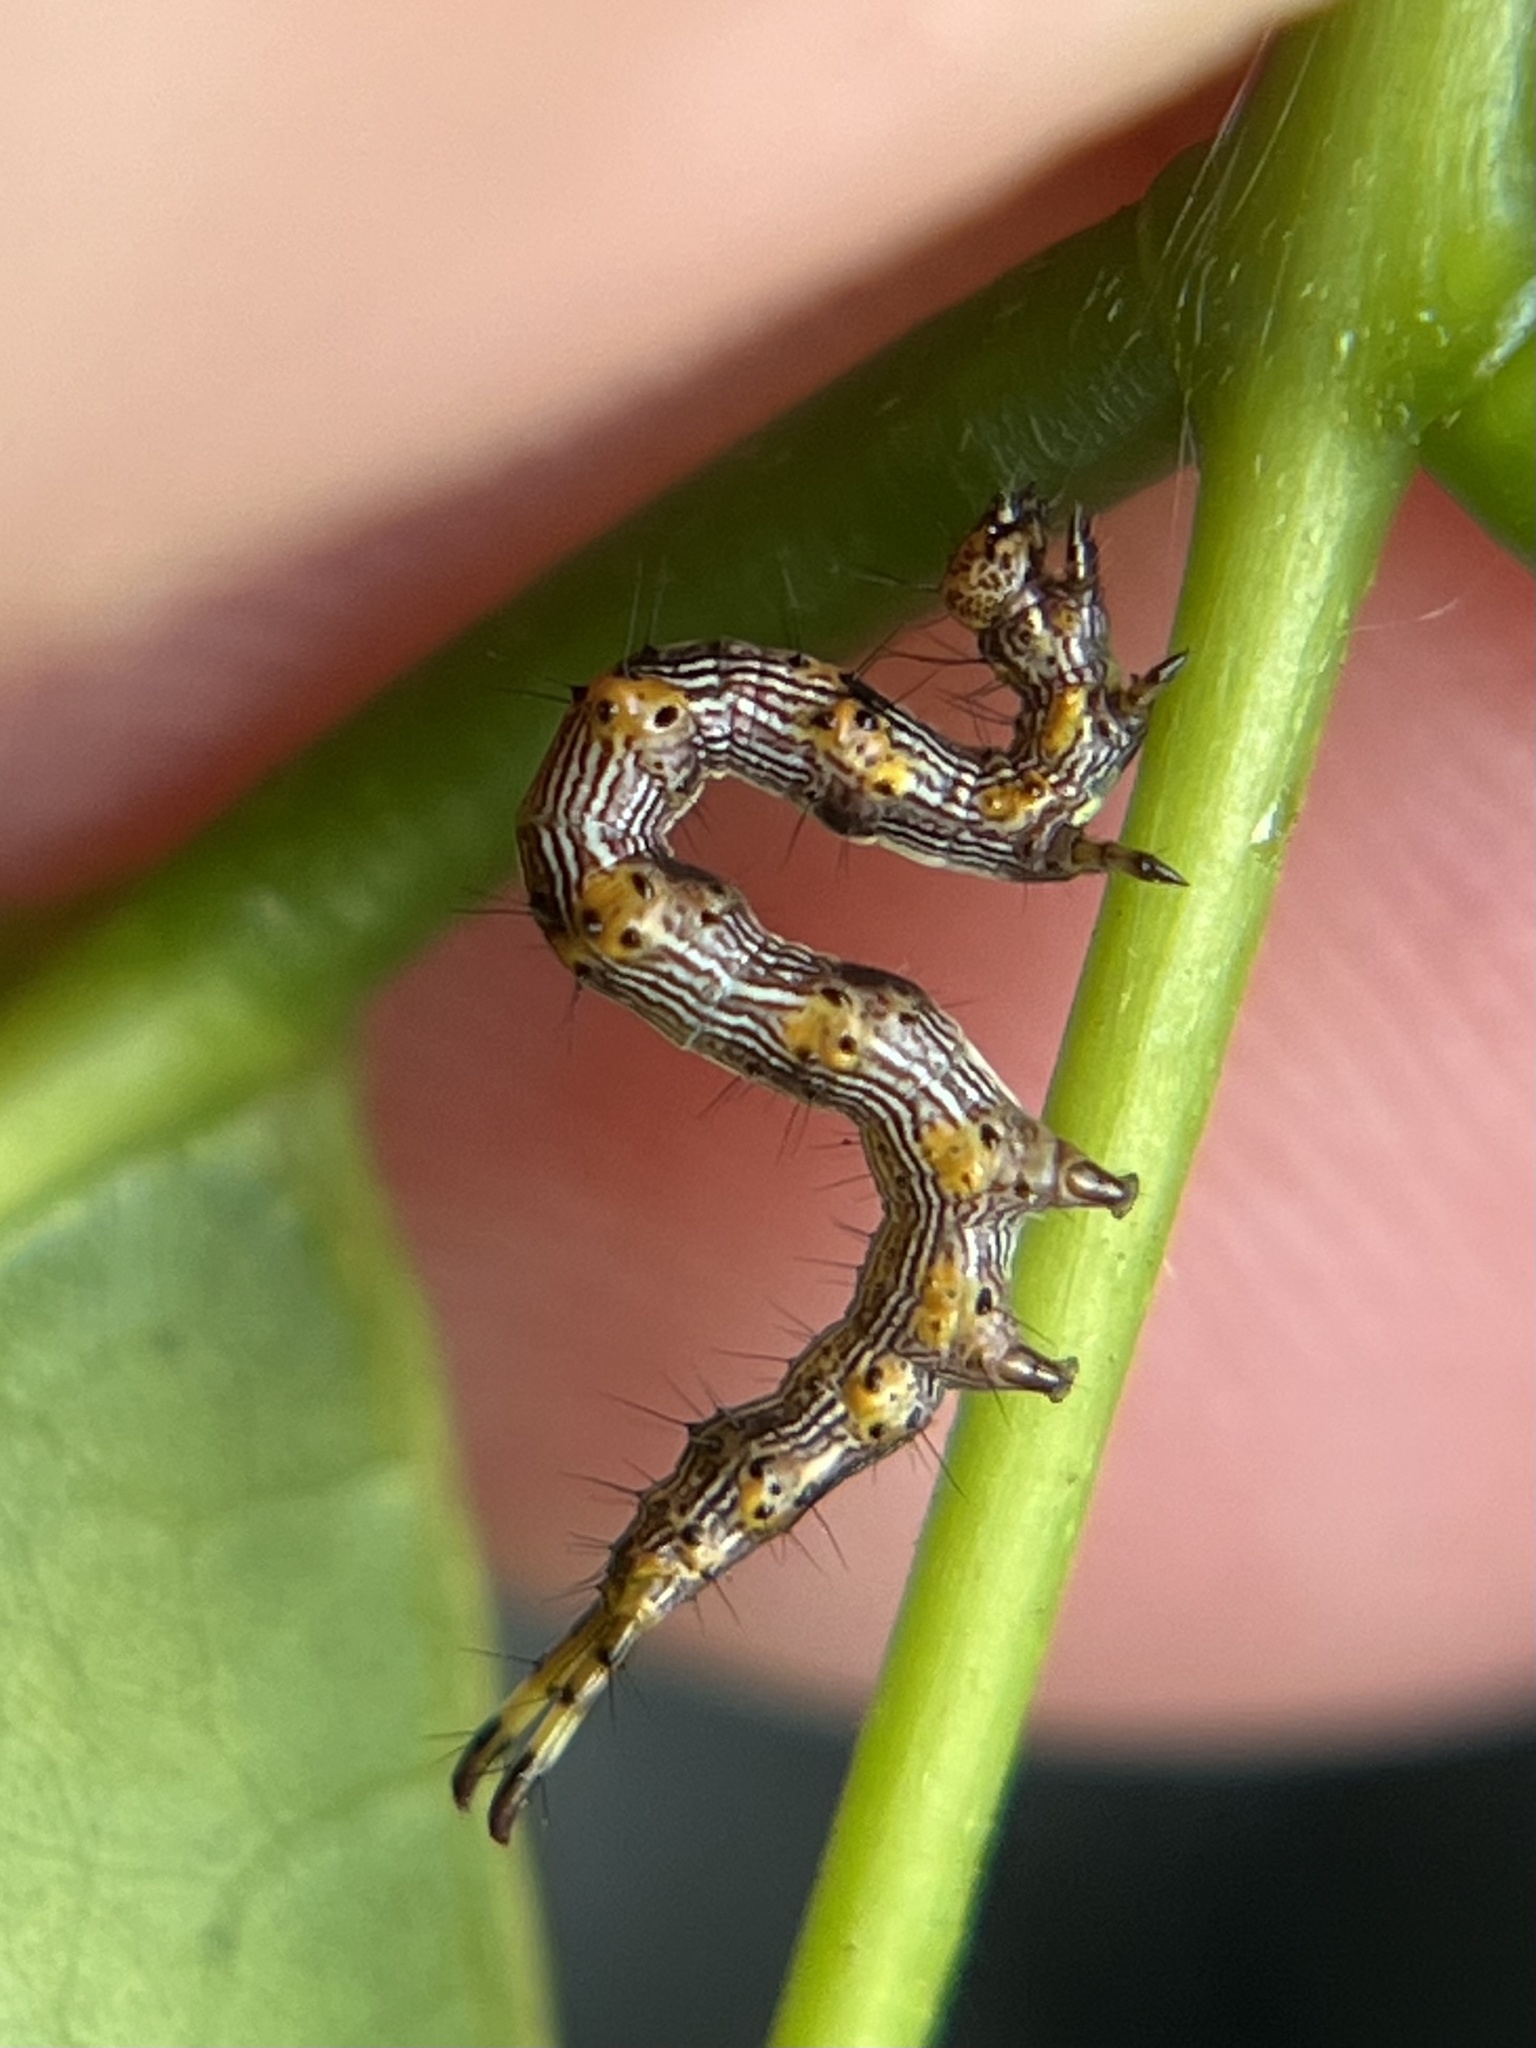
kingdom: Animalia
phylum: Arthropoda
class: Insecta
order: Lepidoptera
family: Erebidae
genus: Selenisa
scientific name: Selenisa sueroides
